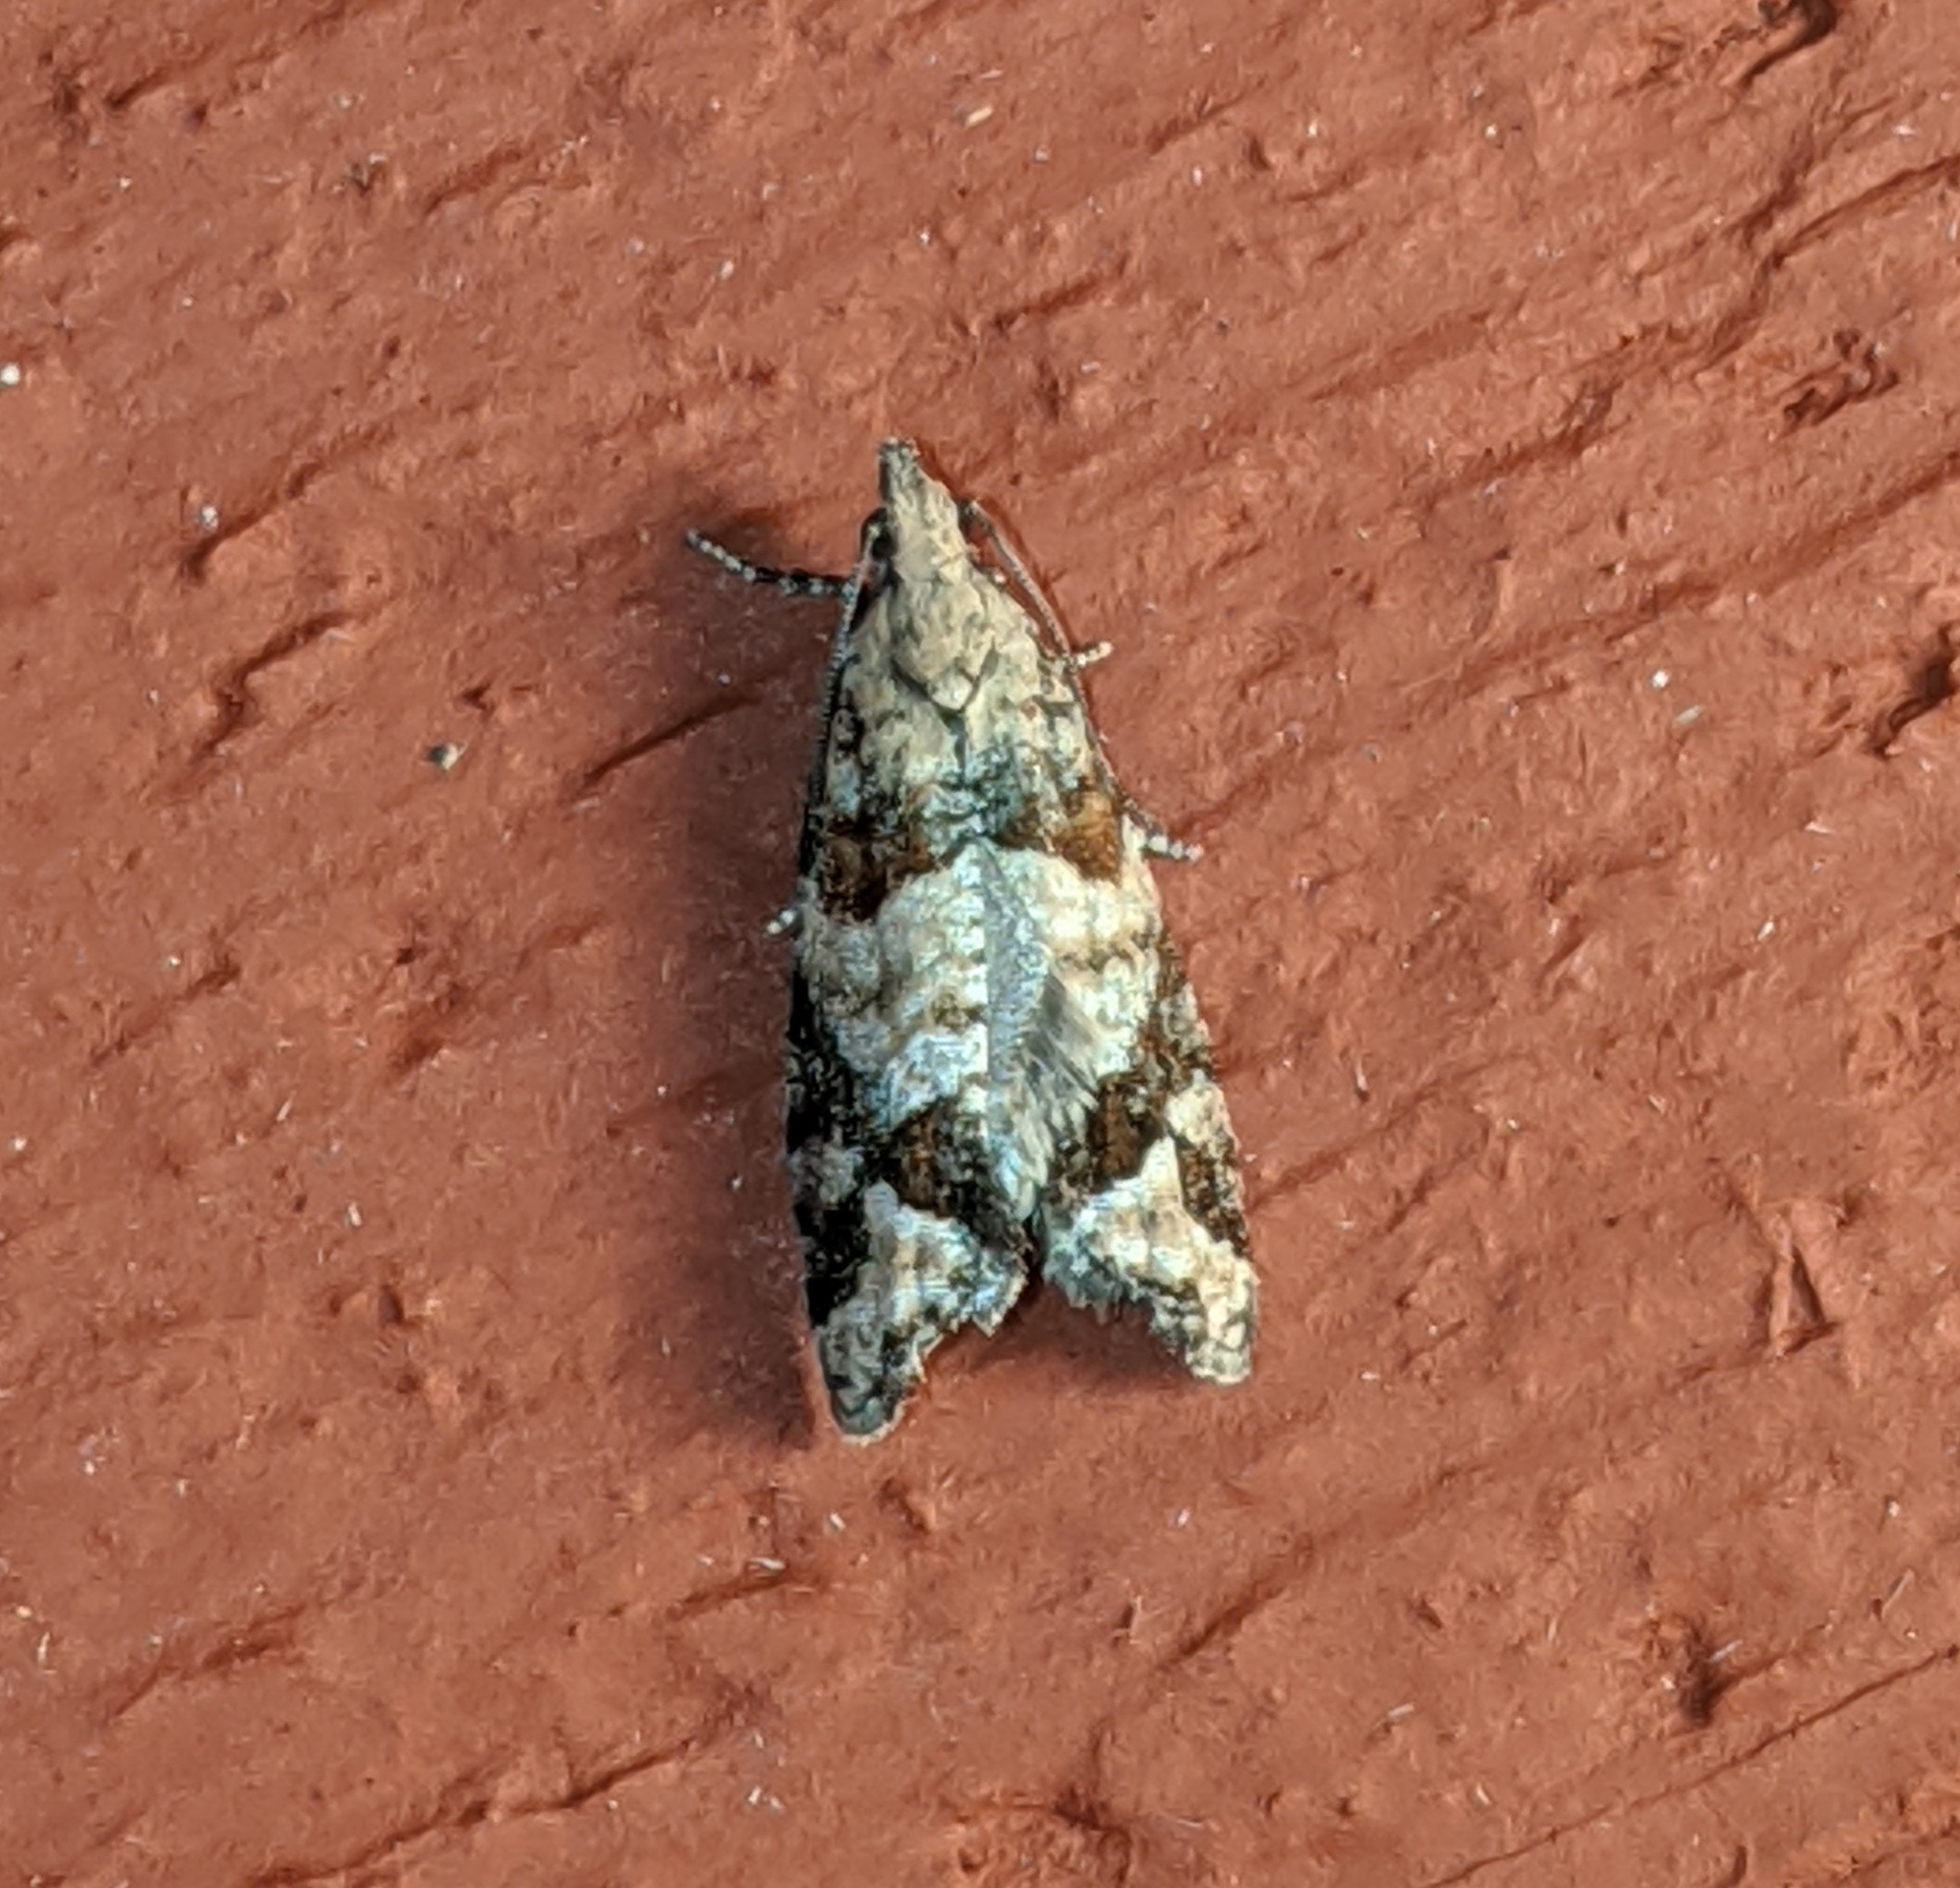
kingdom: Animalia
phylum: Arthropoda
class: Insecta
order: Lepidoptera
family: Tortricidae
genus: Epinotia
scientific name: Epinotia radicana
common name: Red-striped needleworm moth
